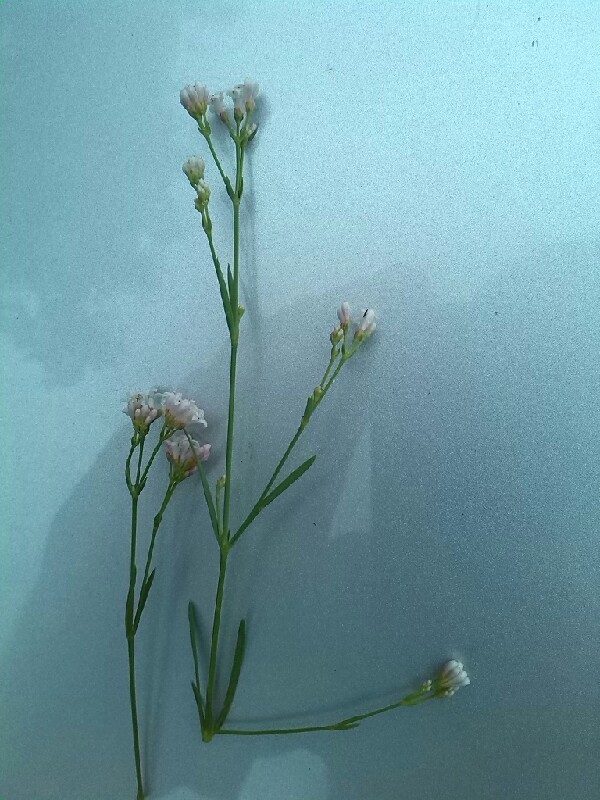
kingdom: Plantae
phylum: Tracheophyta
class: Magnoliopsida
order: Gentianales
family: Rubiaceae
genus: Cynanchica
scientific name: Cynanchica pyrenaica
